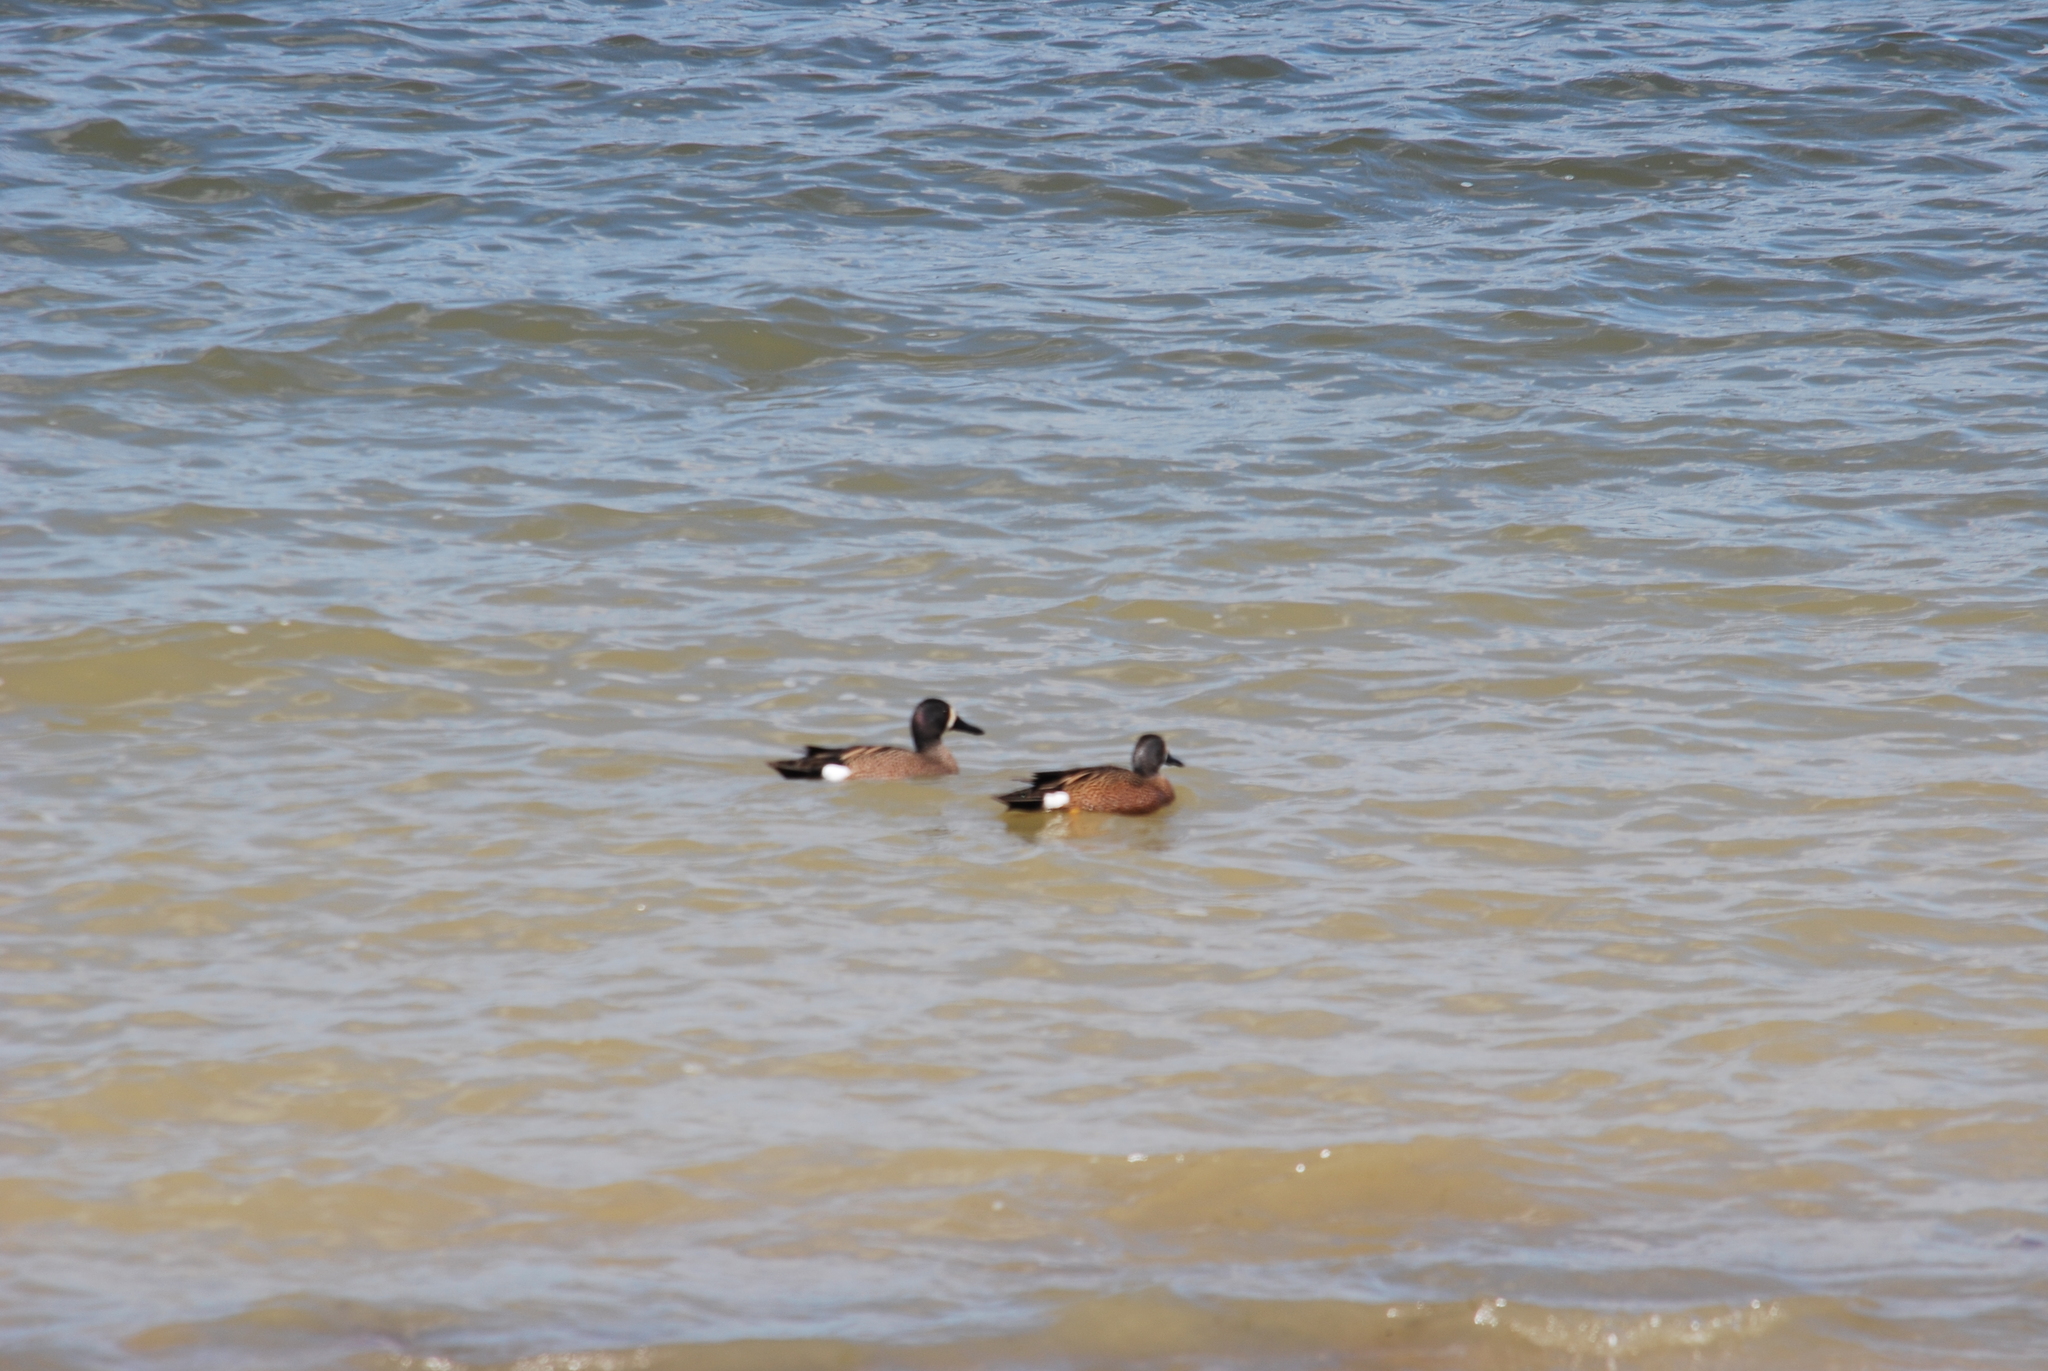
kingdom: Animalia
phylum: Chordata
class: Aves
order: Anseriformes
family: Anatidae
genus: Spatula
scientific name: Spatula discors
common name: Blue-winged teal
